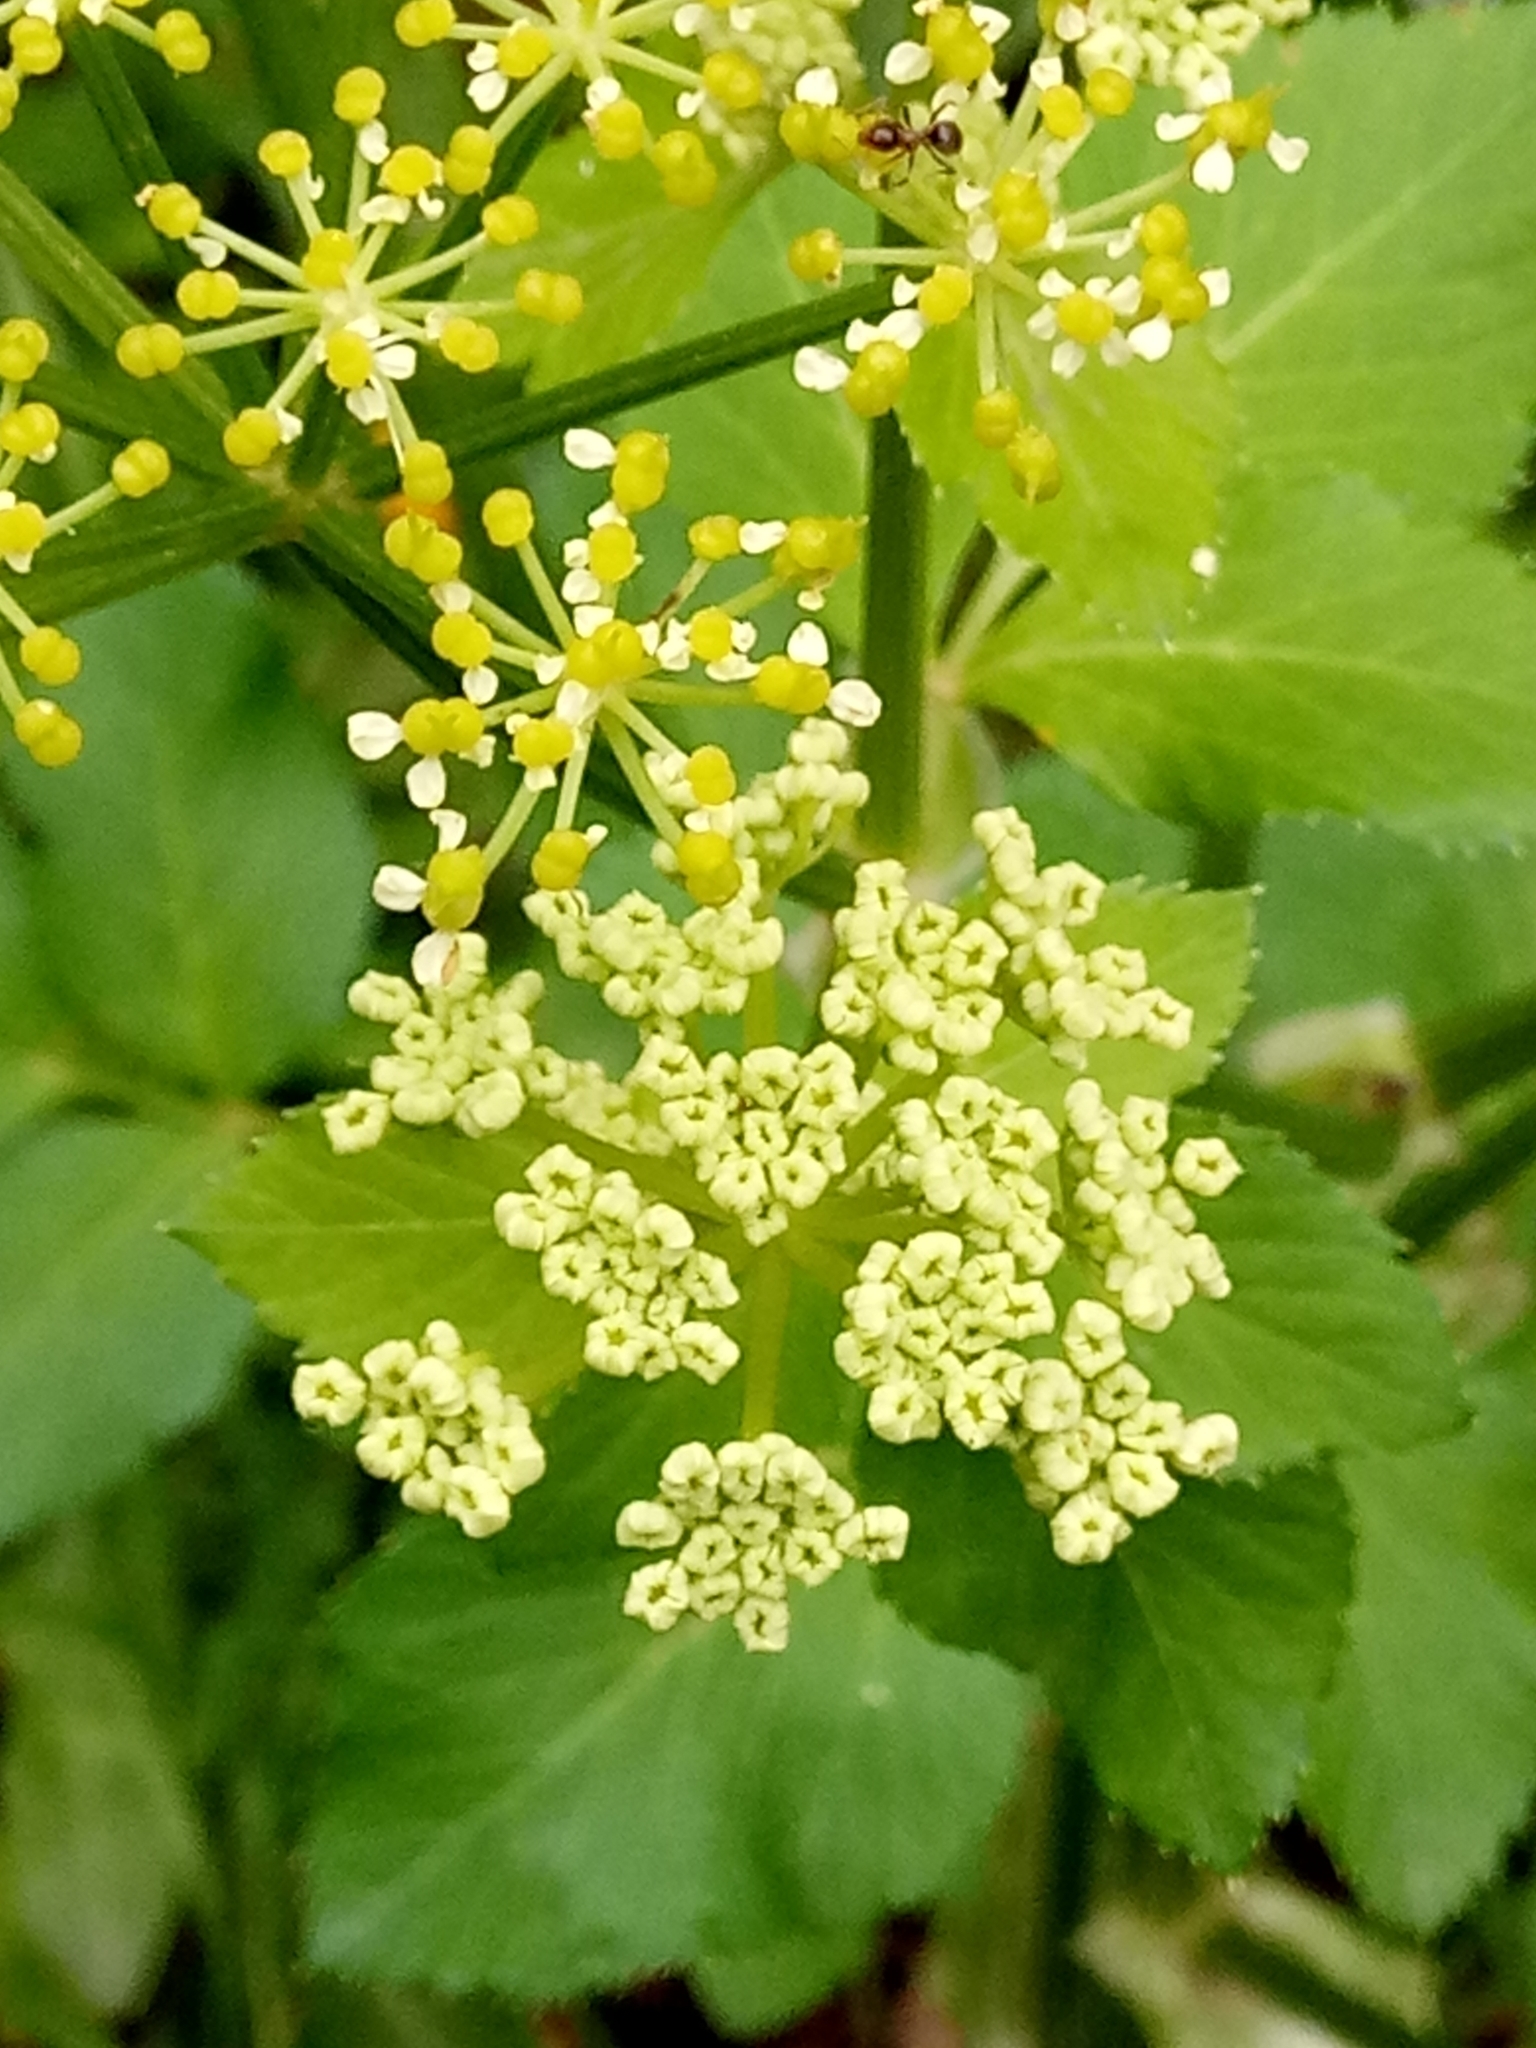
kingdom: Plantae
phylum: Tracheophyta
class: Magnoliopsida
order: Apiales
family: Apiaceae
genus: Smyrnium
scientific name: Smyrnium olusatrum
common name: Alexanders
